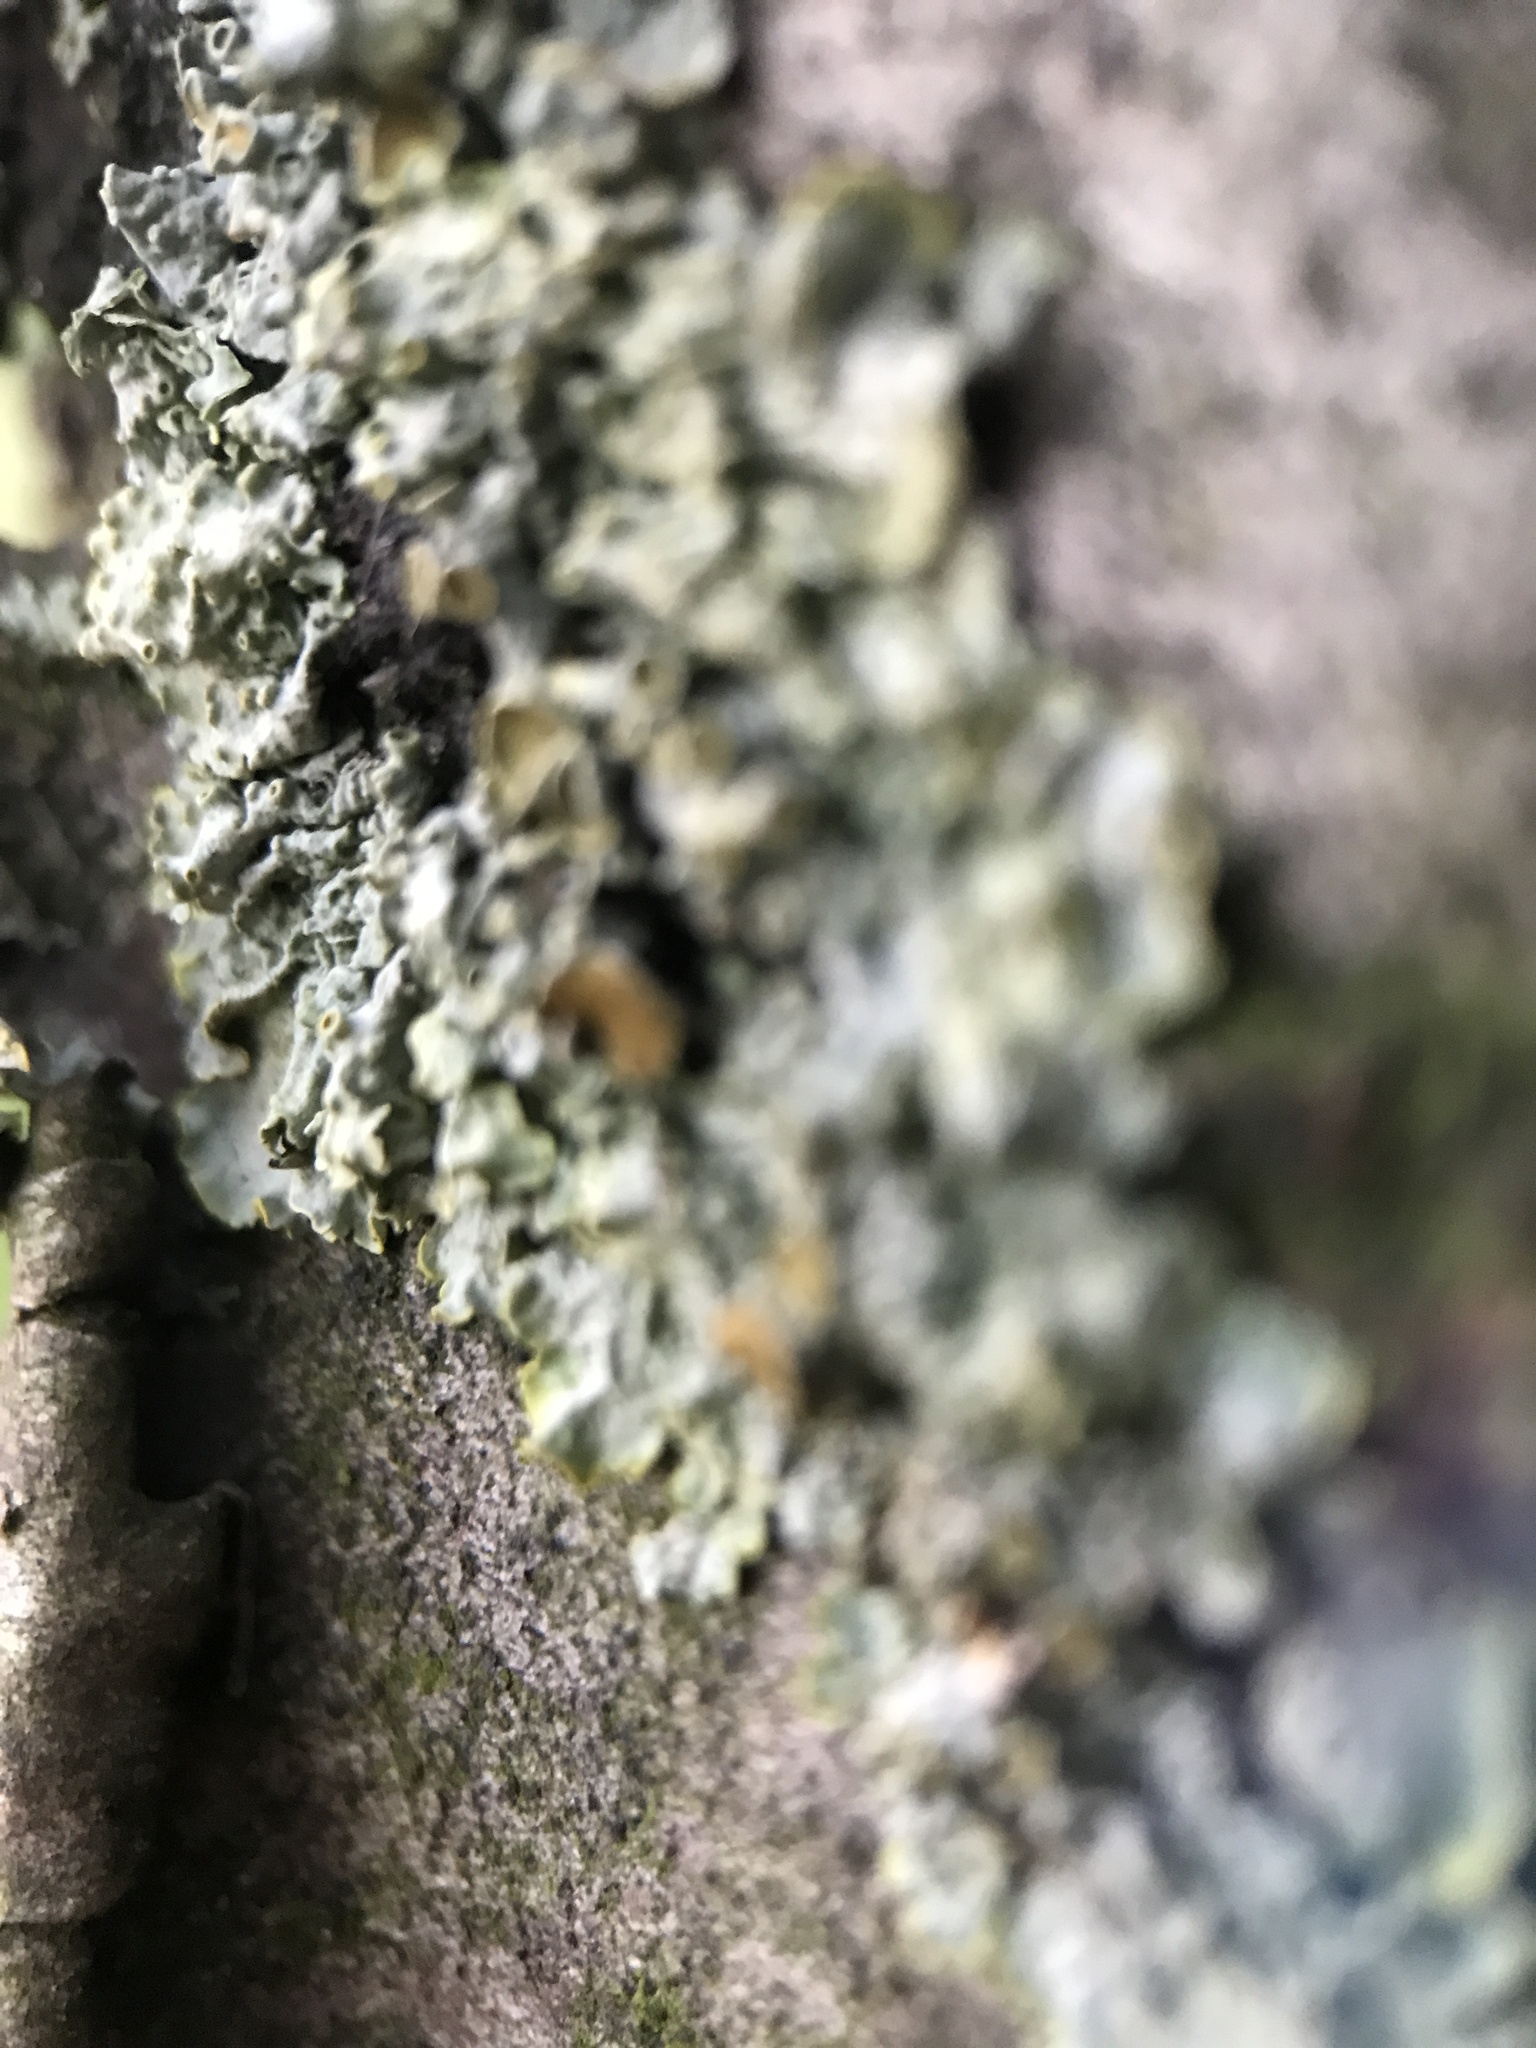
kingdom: Fungi
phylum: Ascomycota
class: Lecanoromycetes
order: Teloschistales
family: Teloschistaceae
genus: Xanthoria
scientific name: Xanthoria parietina
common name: Common orange lichen
